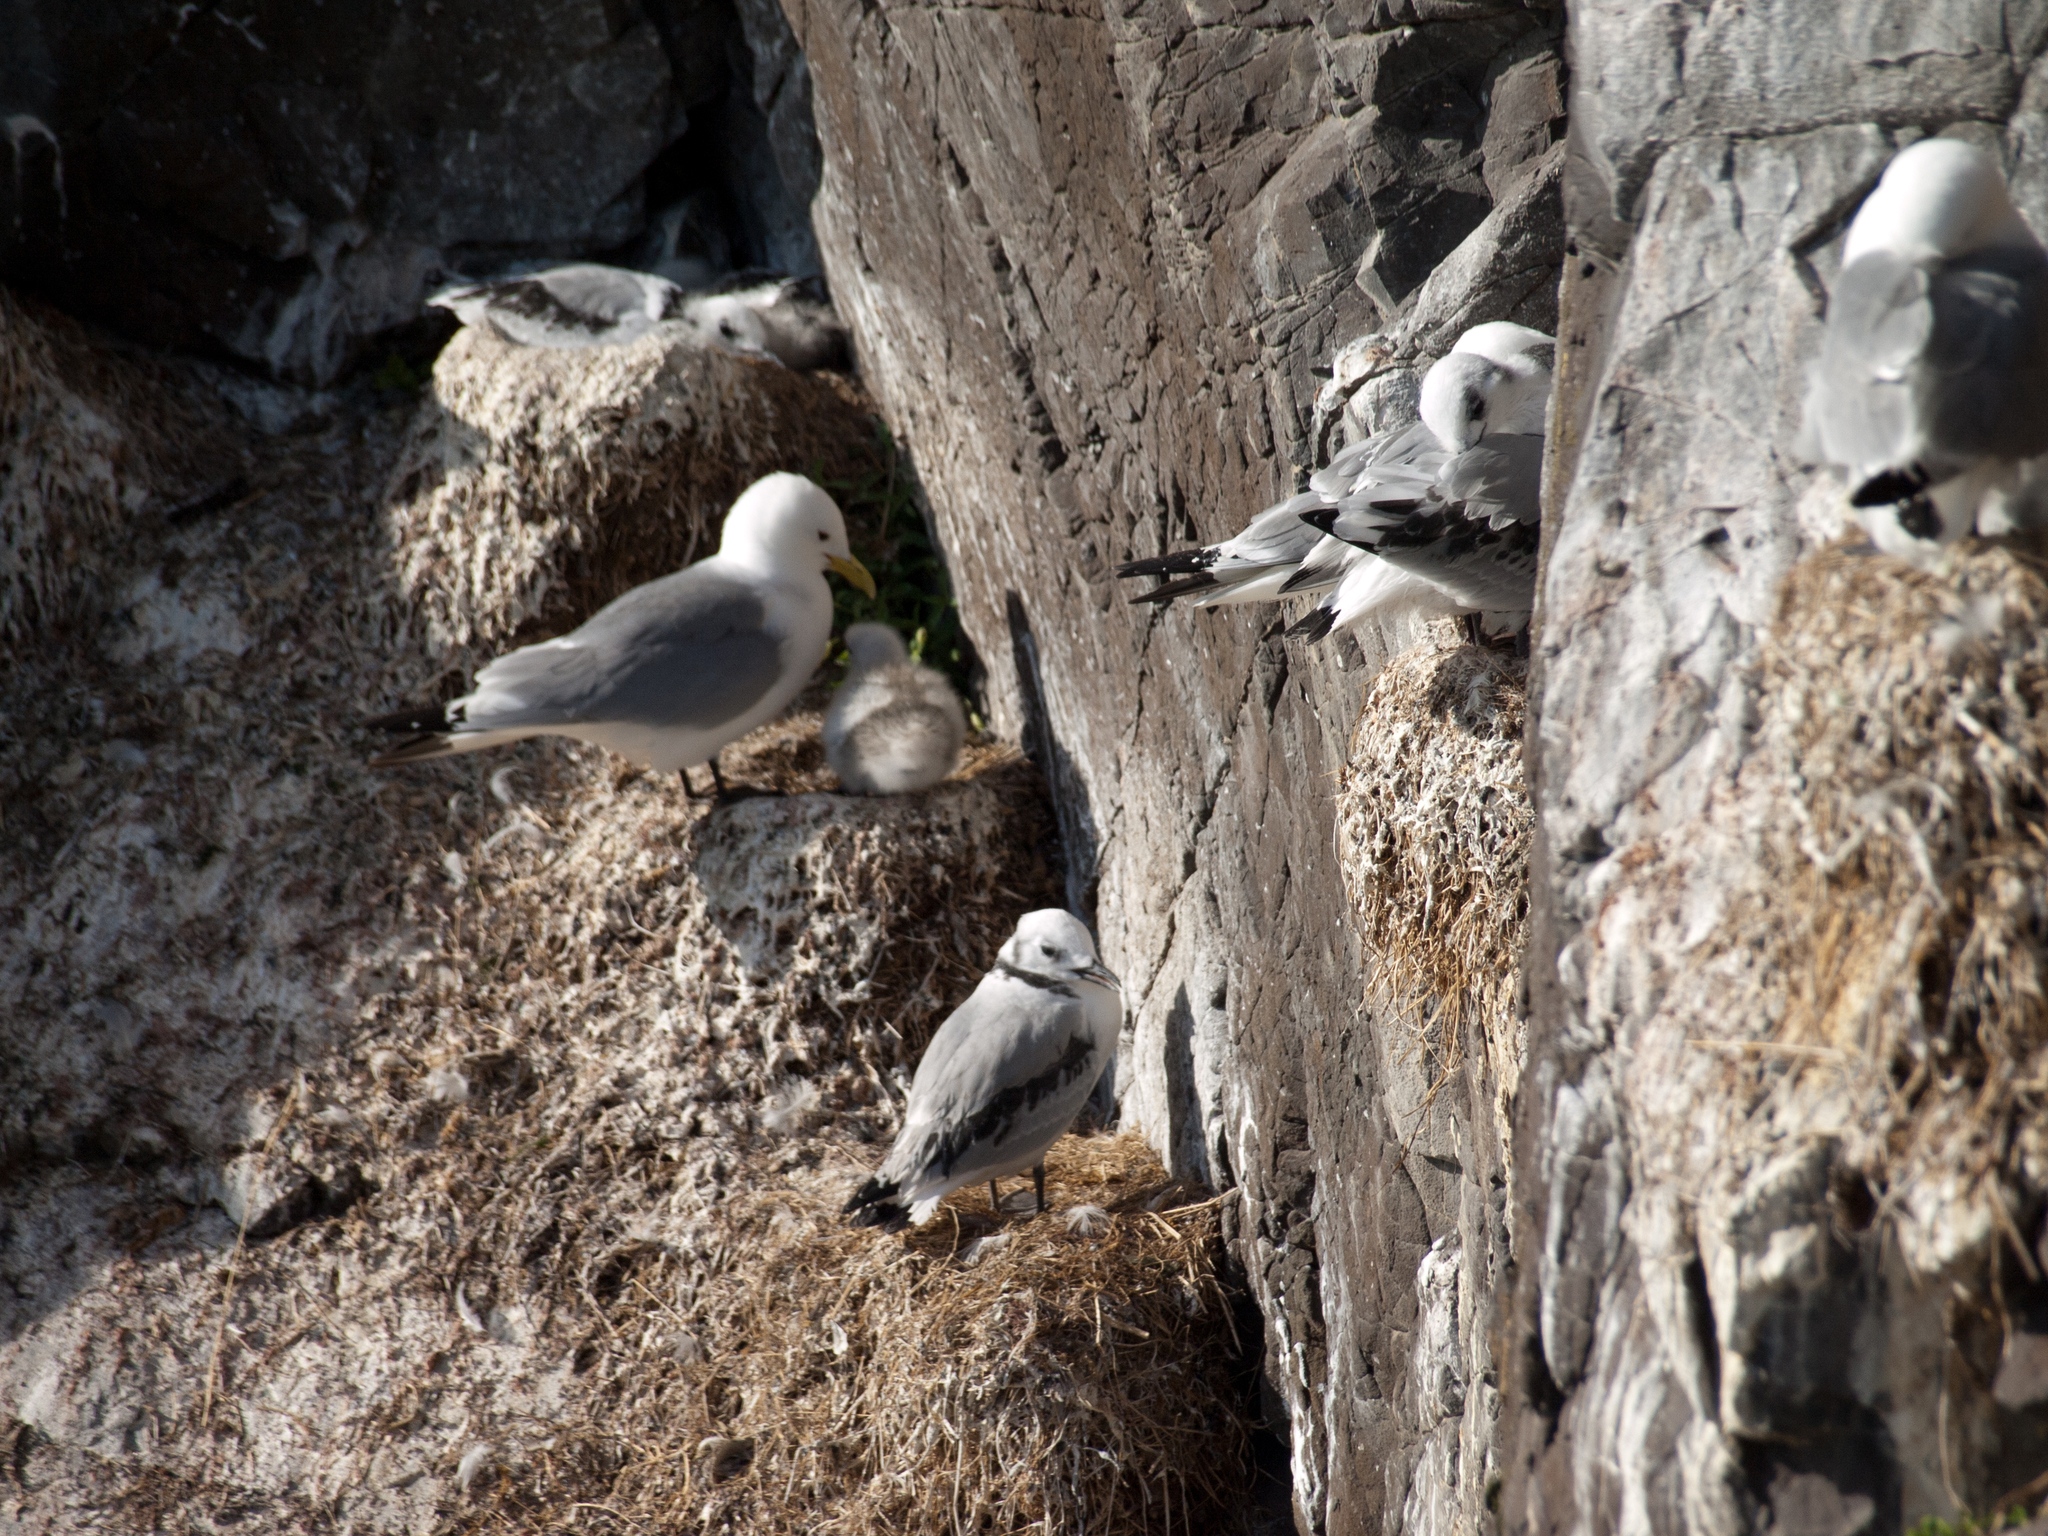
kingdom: Animalia
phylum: Chordata
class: Aves
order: Charadriiformes
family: Laridae
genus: Rissa
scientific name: Rissa tridactyla
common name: Black-legged kittiwake
